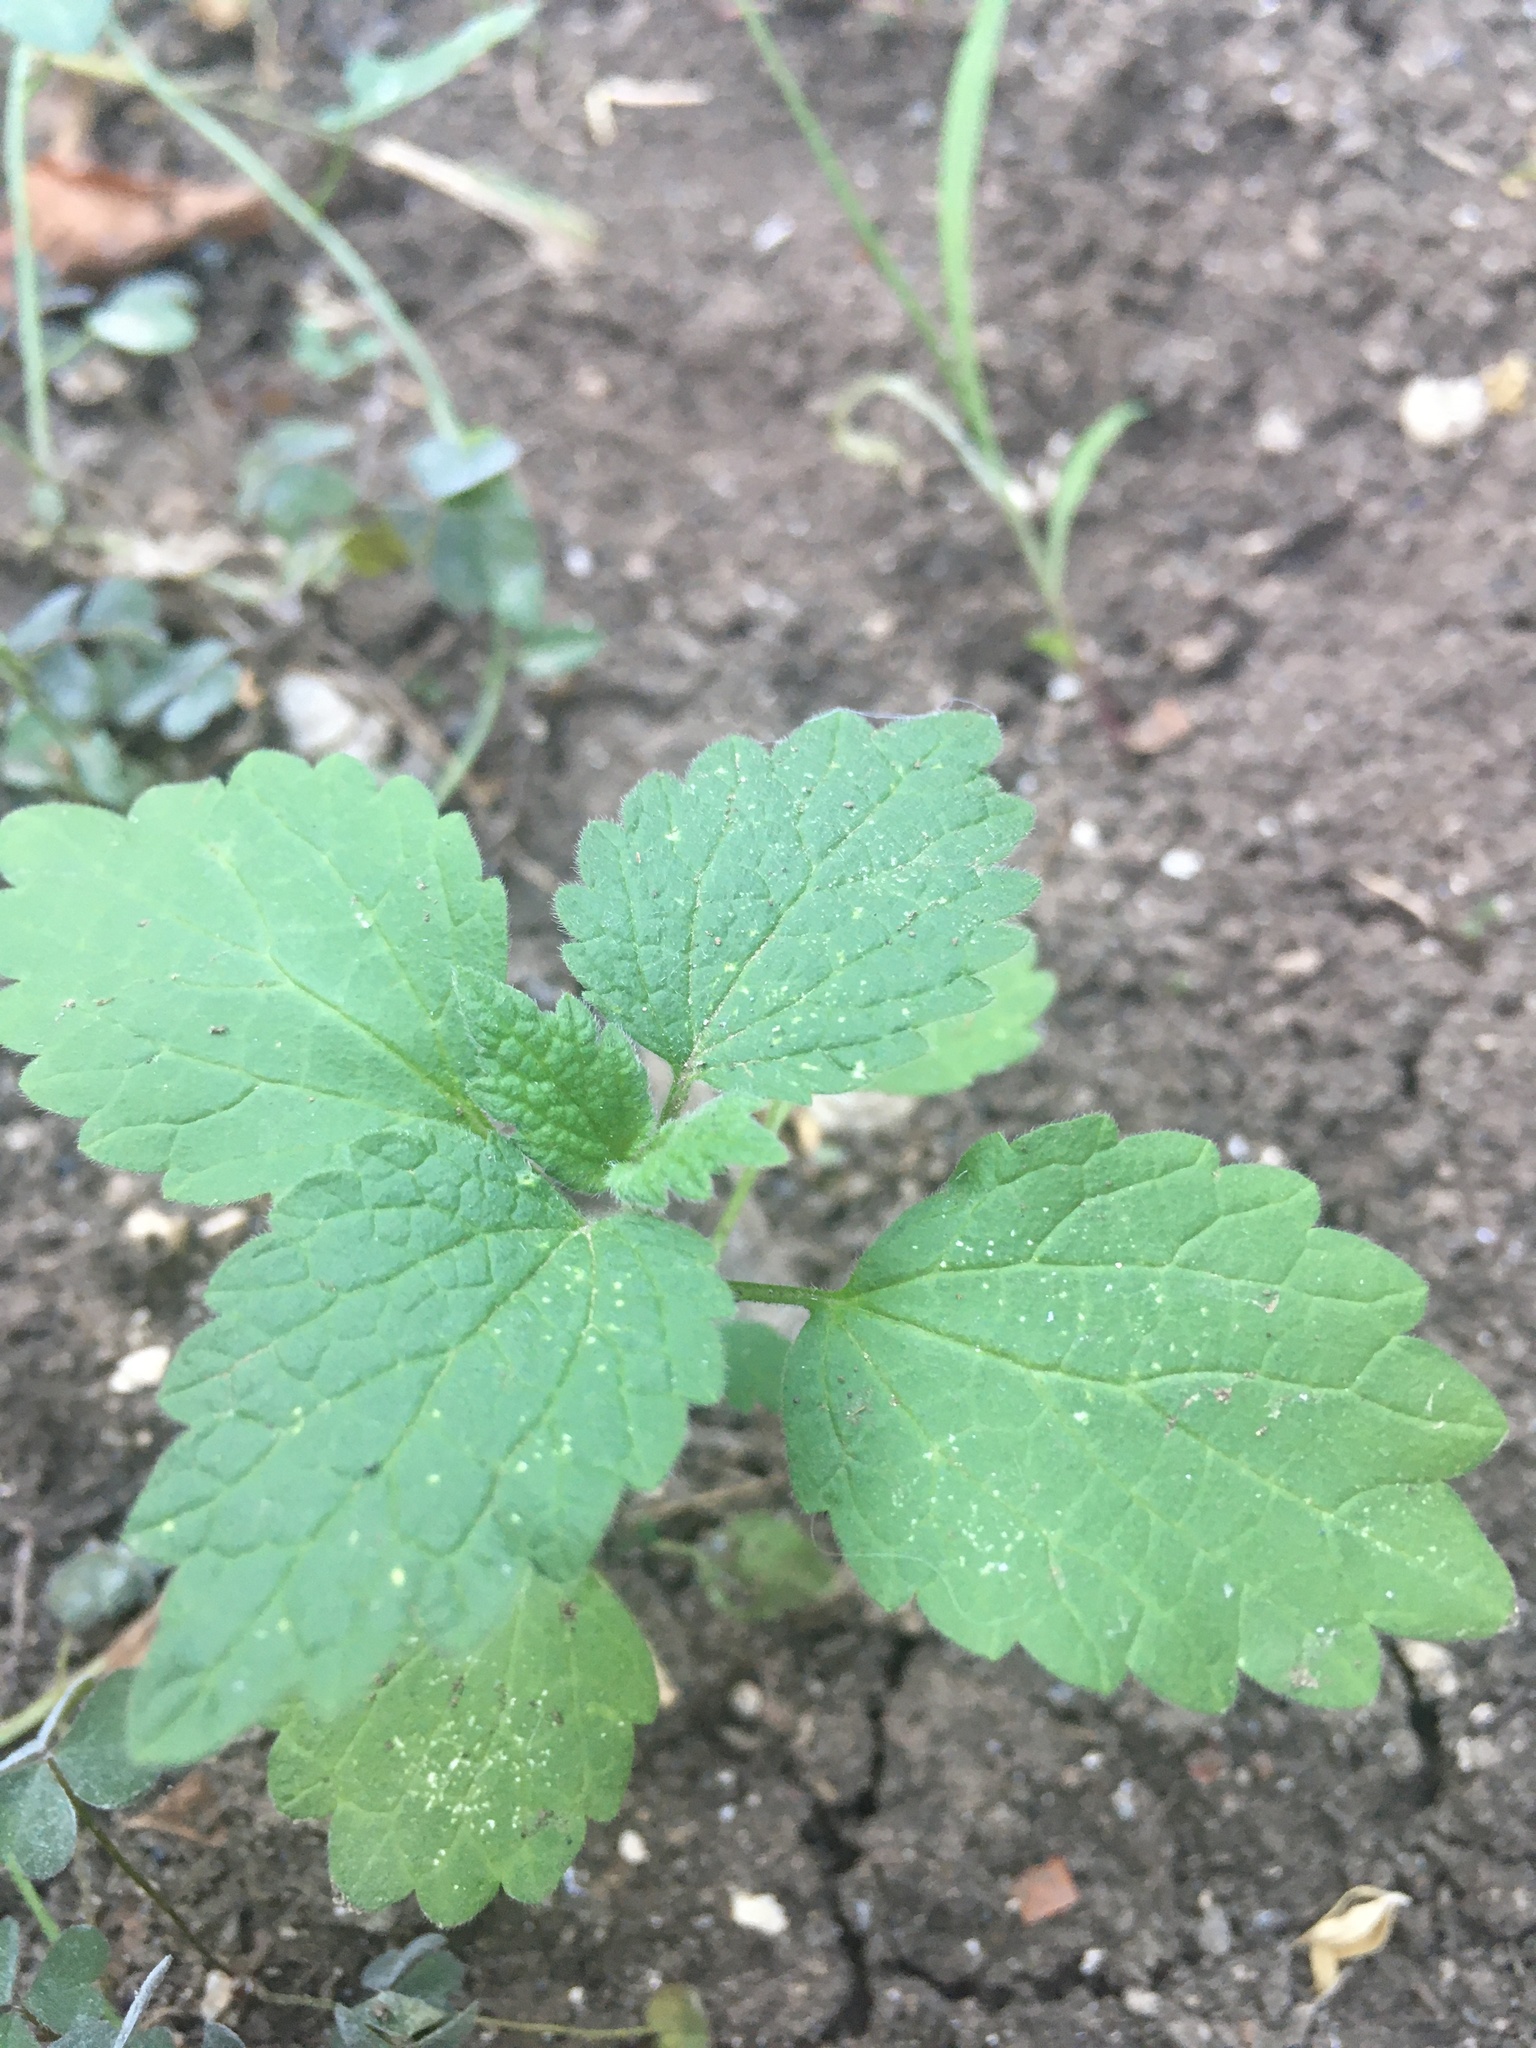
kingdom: Plantae
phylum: Tracheophyta
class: Magnoliopsida
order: Lamiales
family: Lamiaceae
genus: Ballota
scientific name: Ballota nigra
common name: Black horehound
